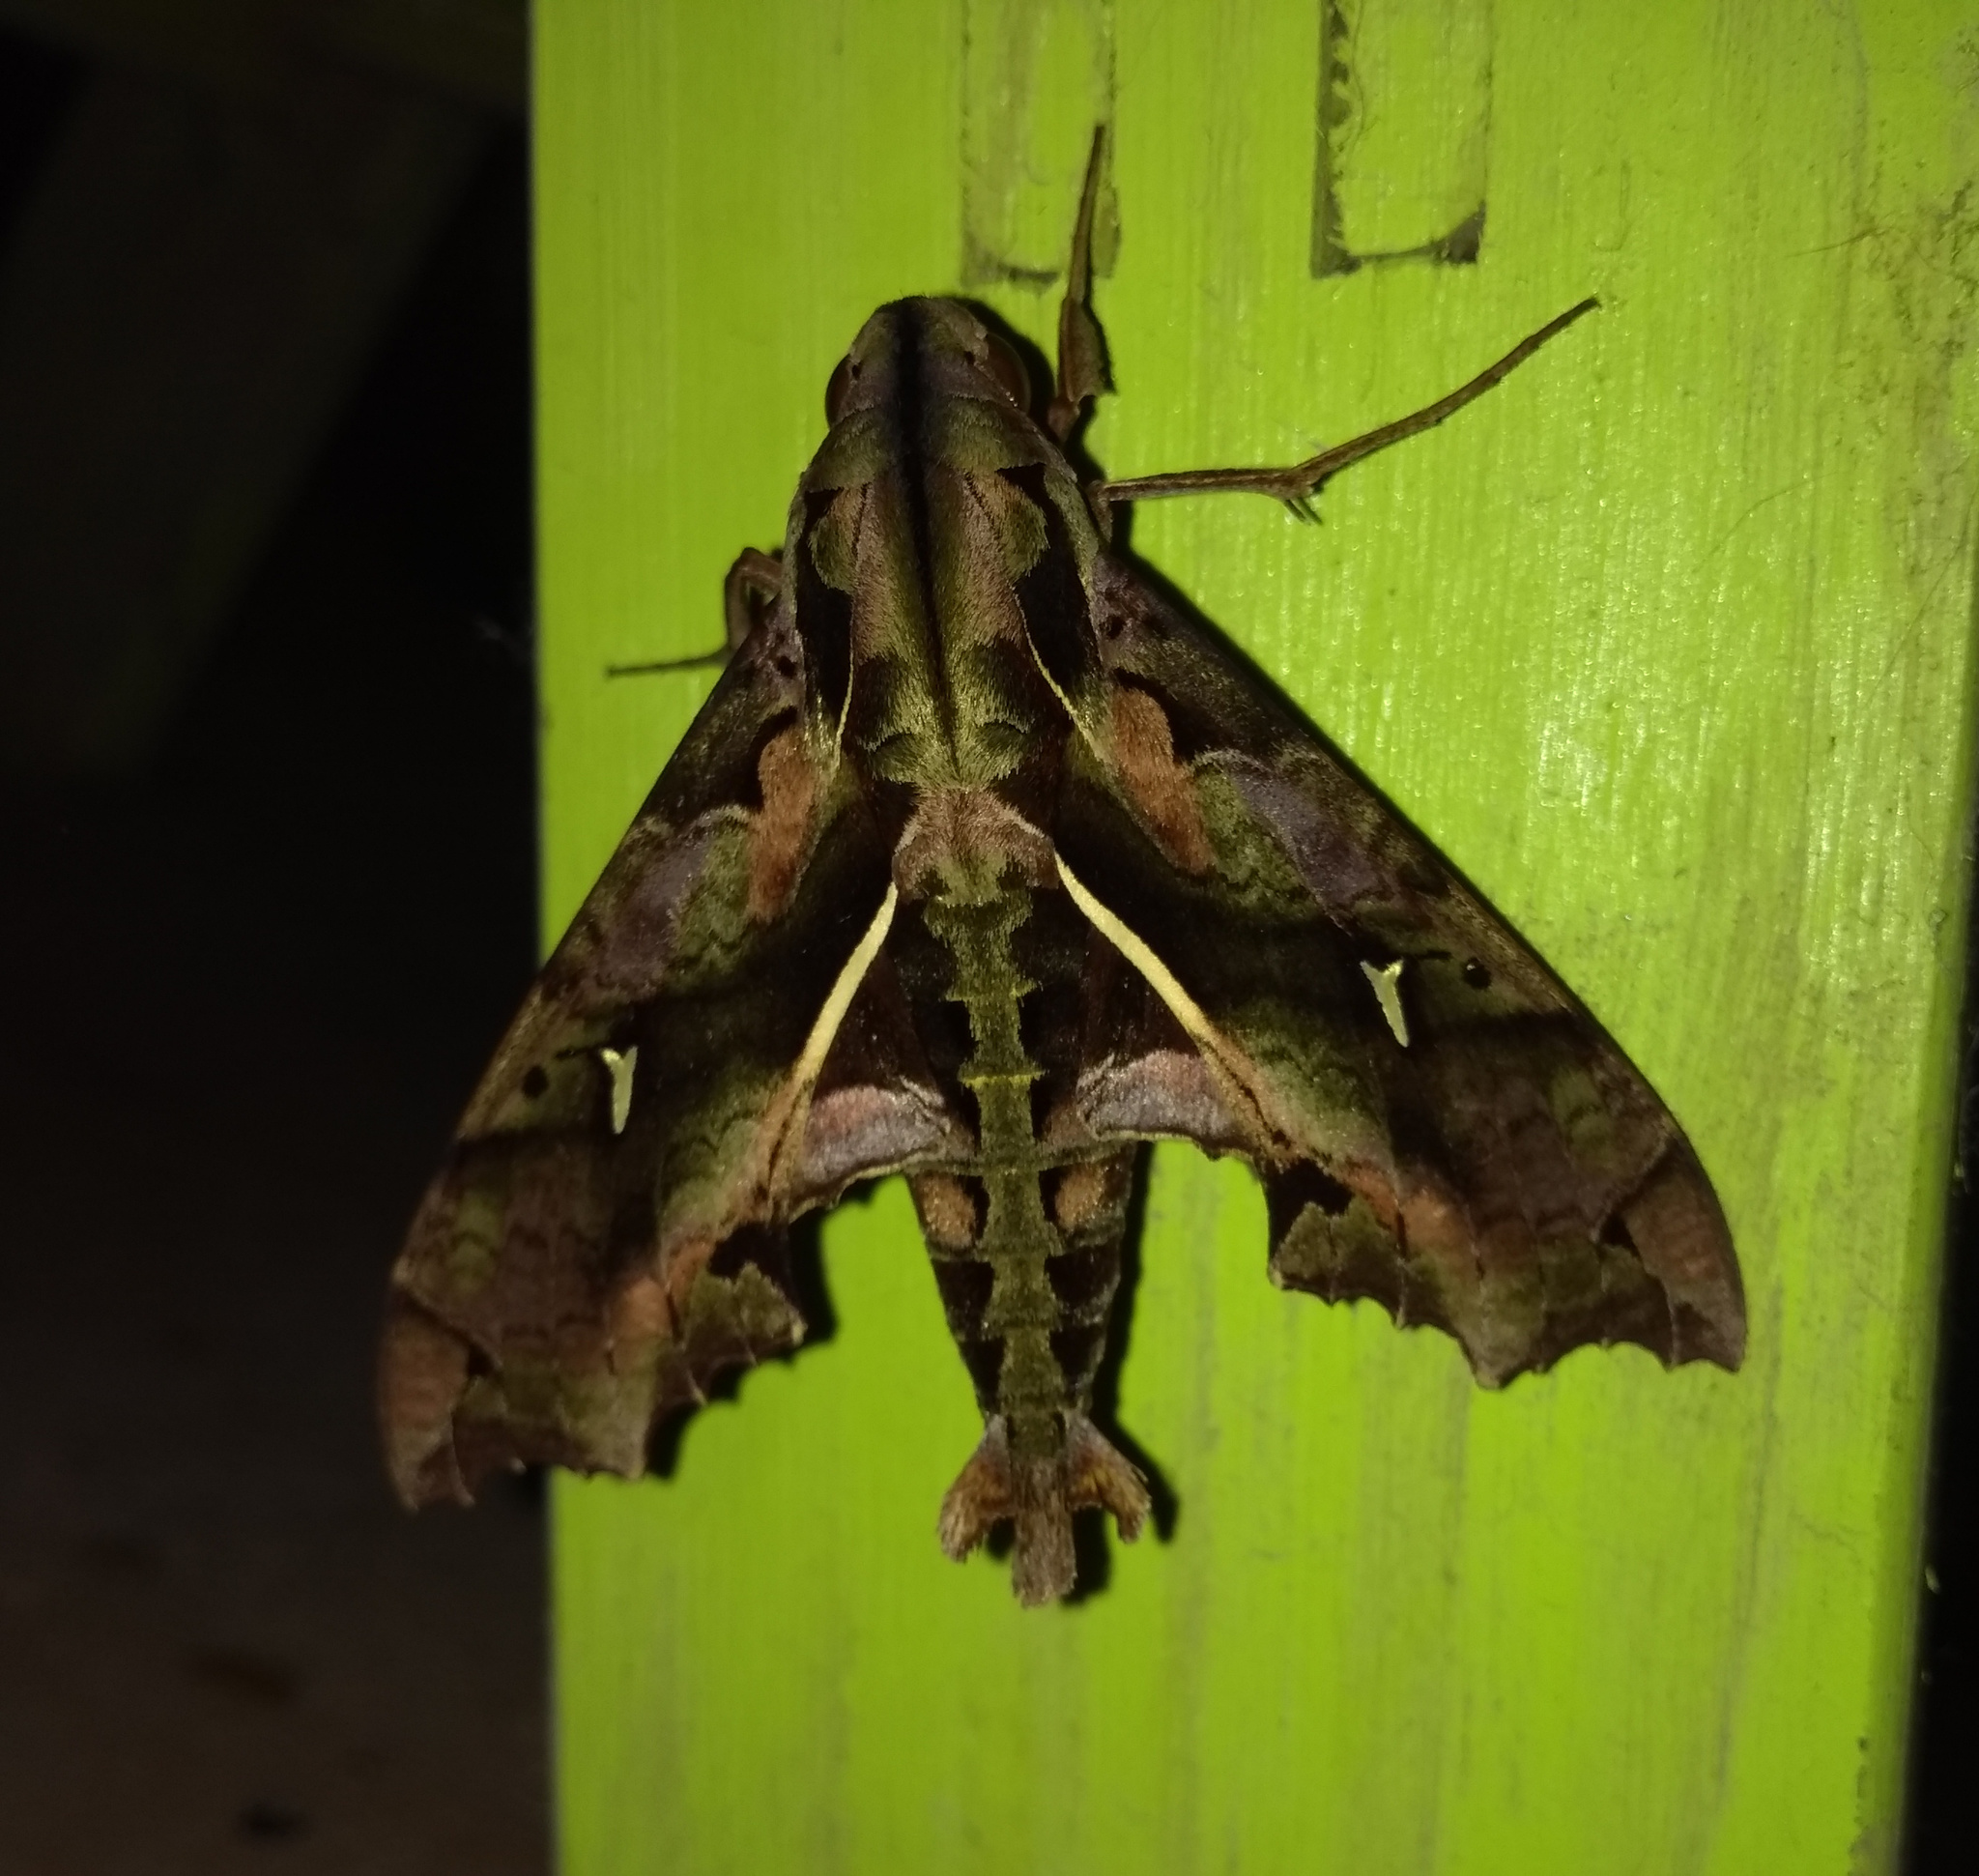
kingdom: Animalia
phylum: Arthropoda
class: Insecta
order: Lepidoptera
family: Sphingidae
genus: Hemeroplanes
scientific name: Hemeroplanes ornatus
